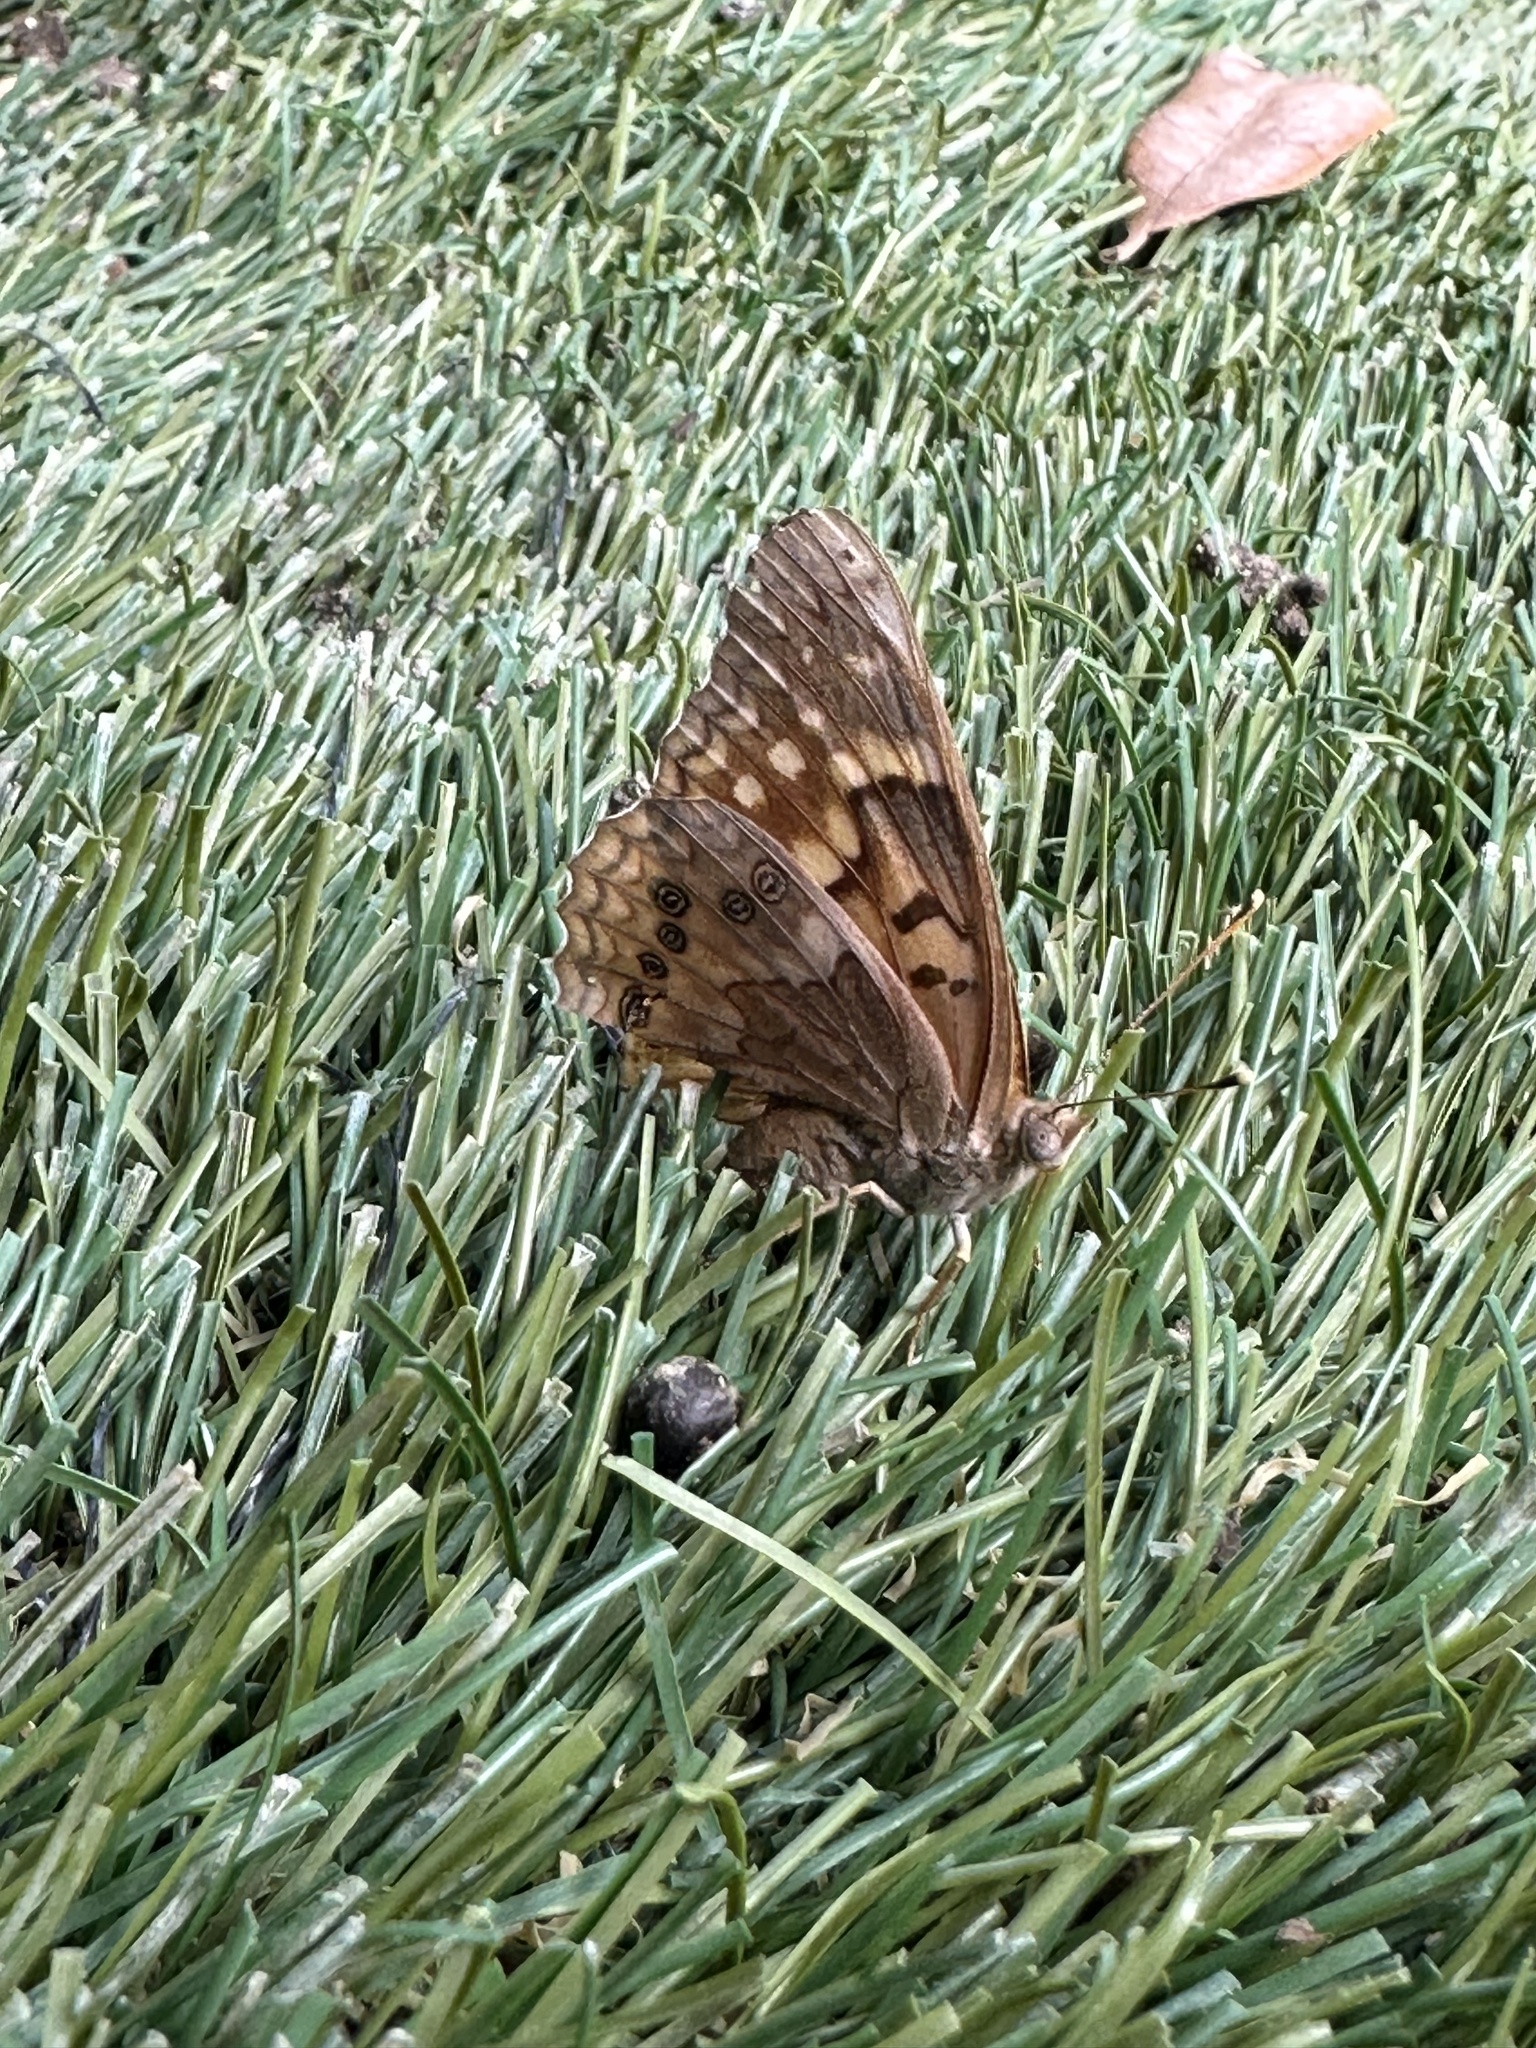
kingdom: Animalia
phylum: Arthropoda
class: Insecta
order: Lepidoptera
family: Nymphalidae
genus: Asterocampa
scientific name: Asterocampa clyton
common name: Tawny emperor
